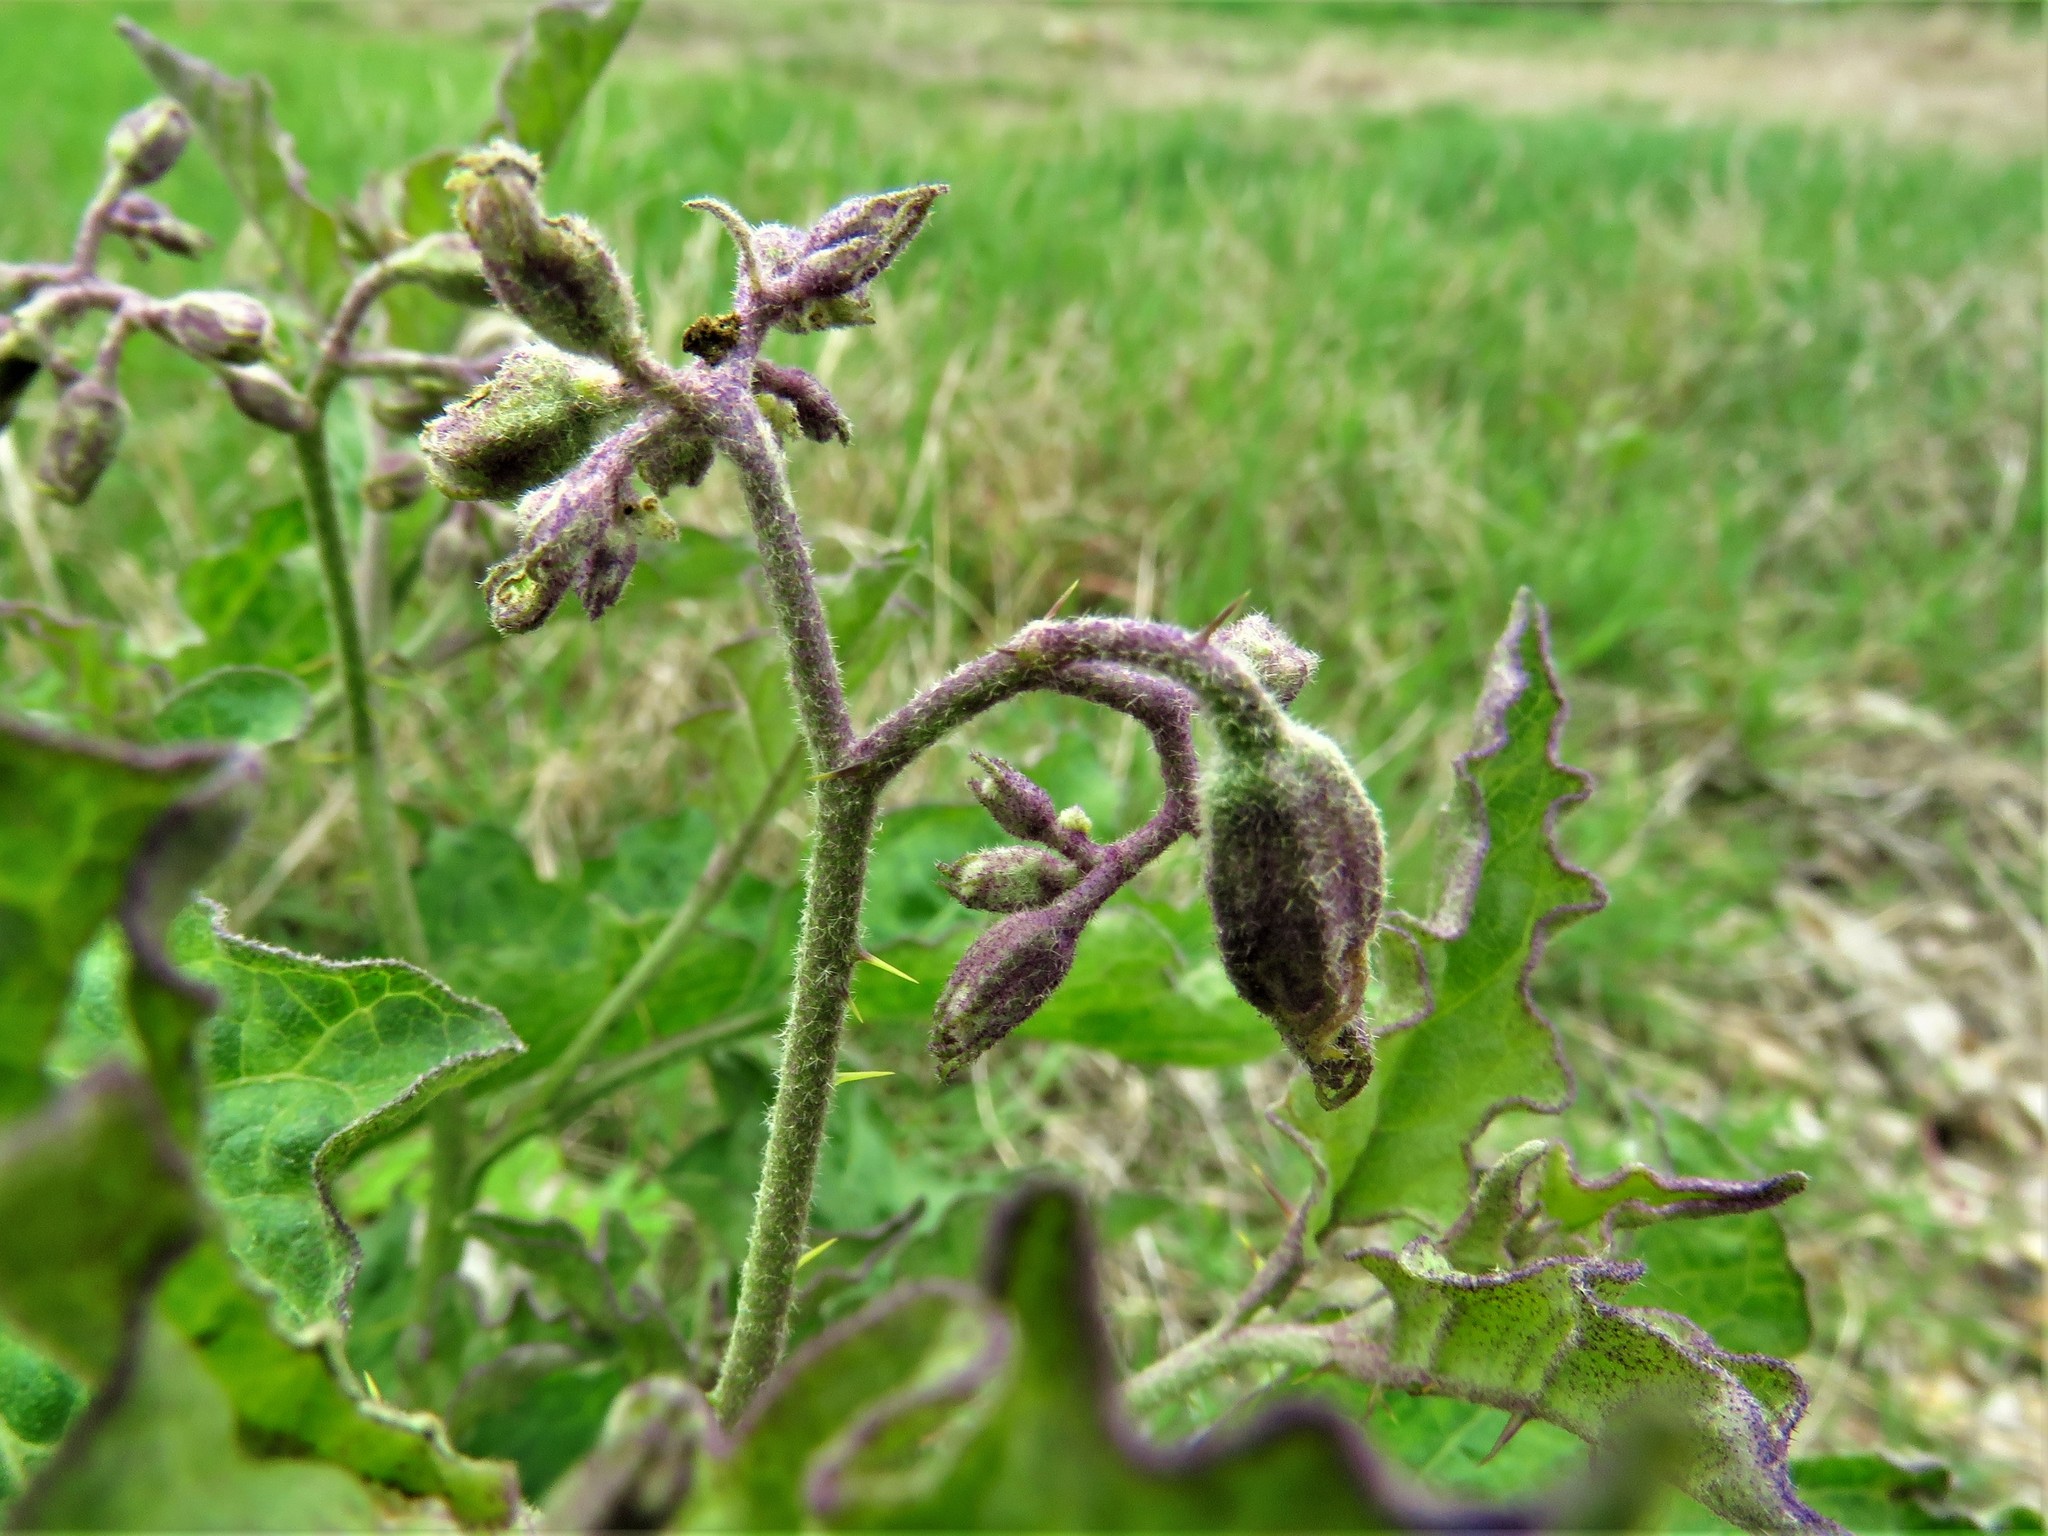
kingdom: Plantae
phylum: Tracheophyta
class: Magnoliopsida
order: Solanales
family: Solanaceae
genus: Solanum
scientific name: Solanum dimidiatum
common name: Carolina horse-nettle
